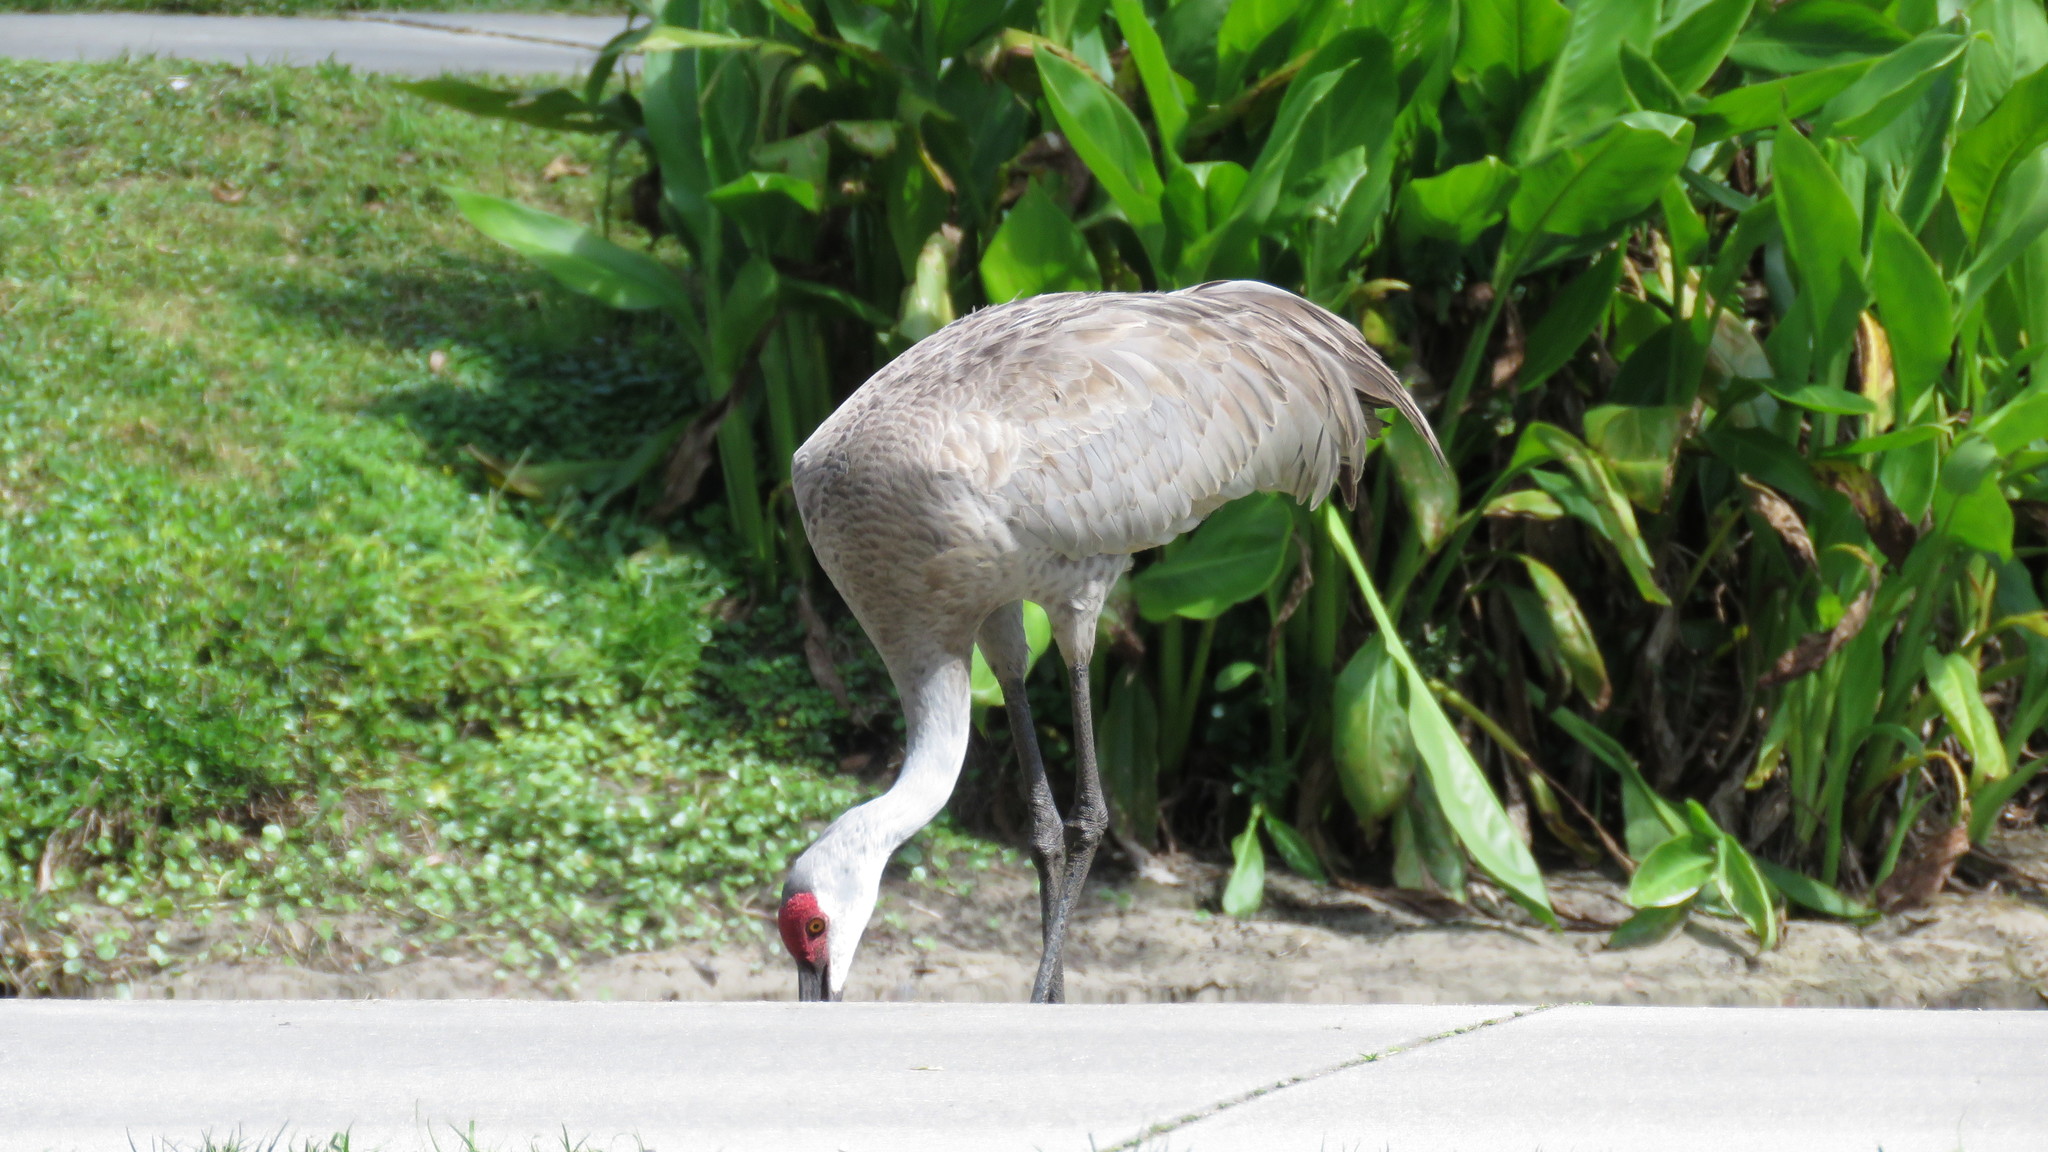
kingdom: Animalia
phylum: Chordata
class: Aves
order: Gruiformes
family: Gruidae
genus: Grus
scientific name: Grus canadensis
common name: Sandhill crane
